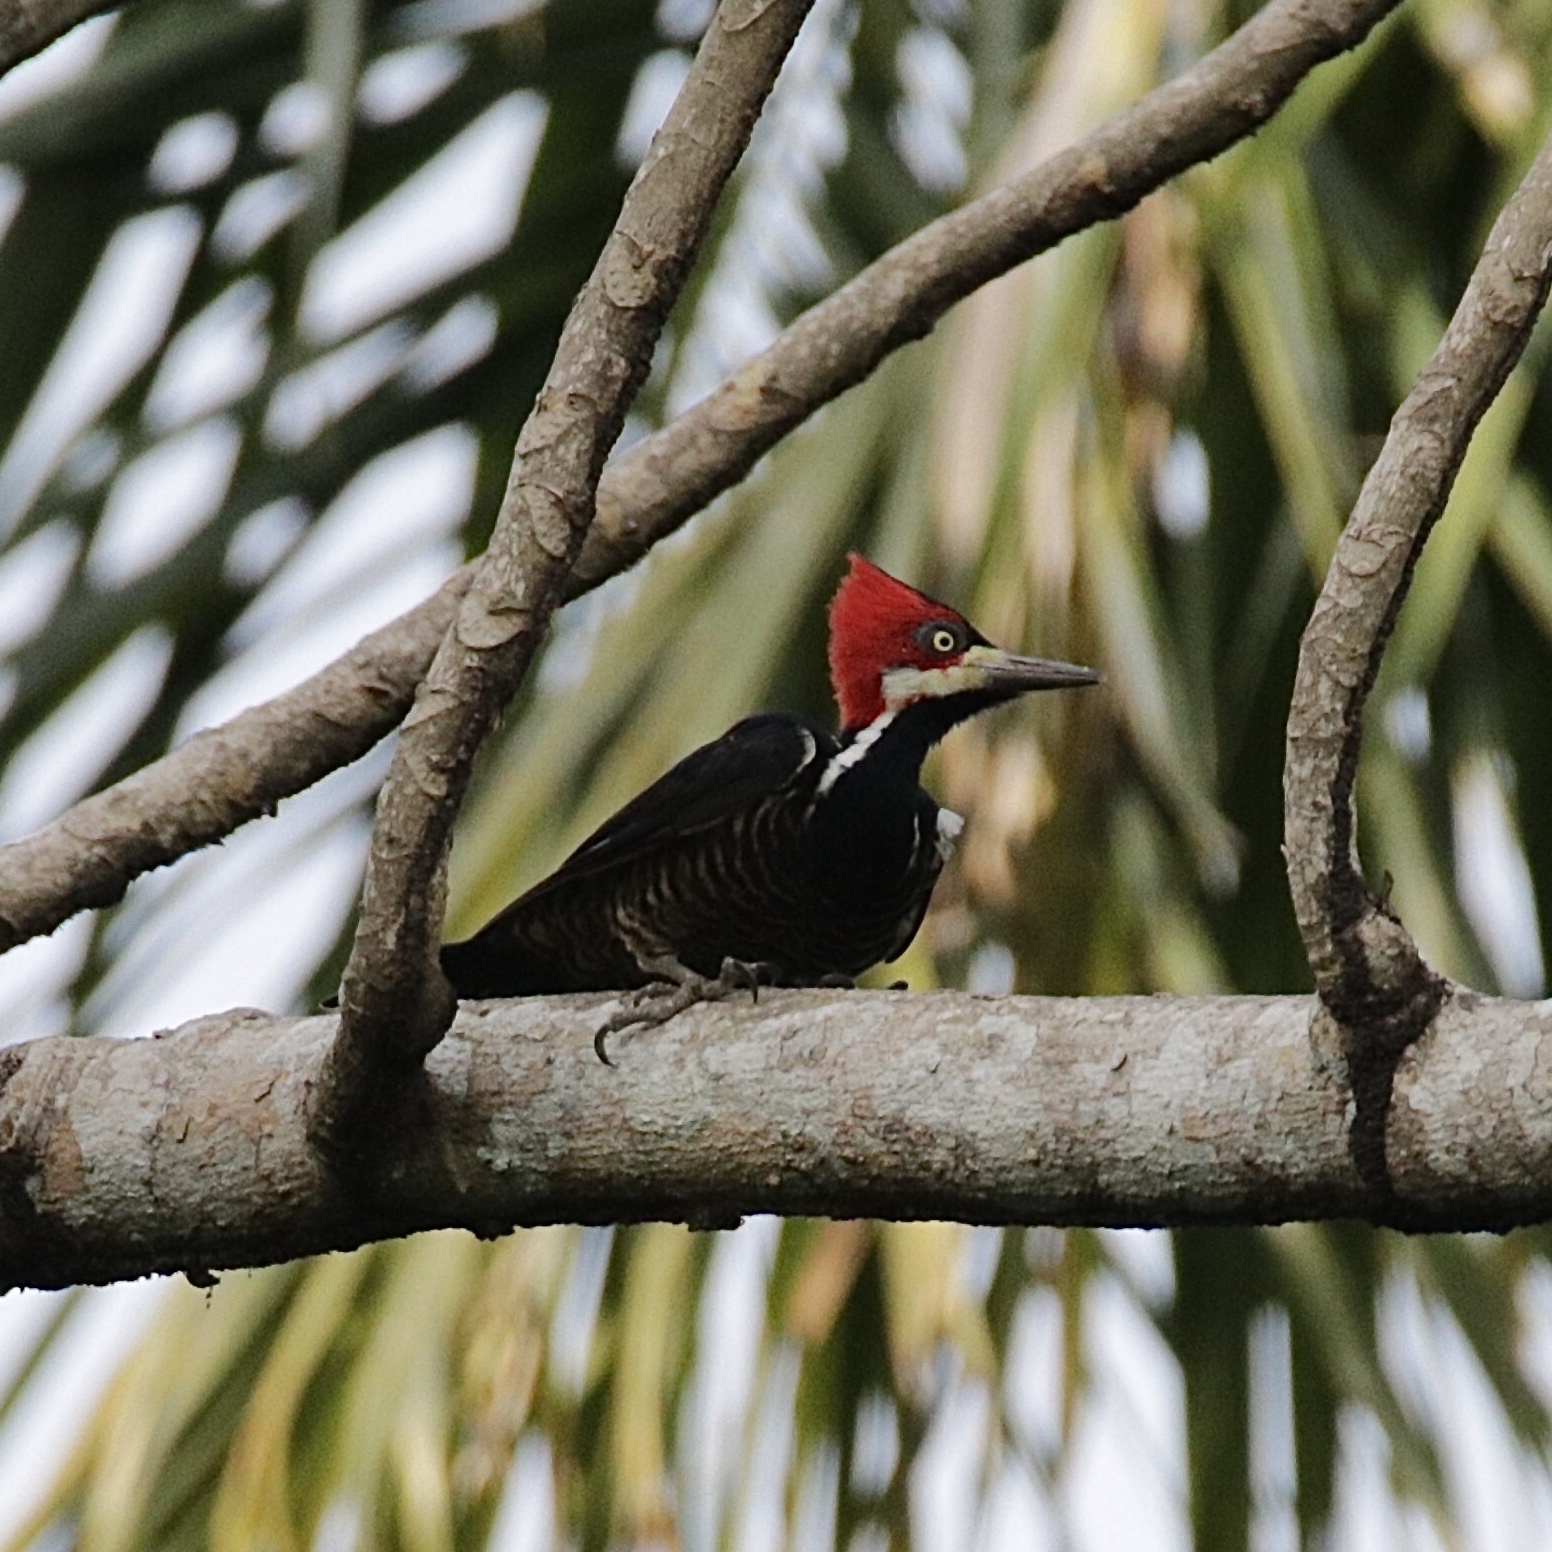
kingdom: Animalia
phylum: Chordata
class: Aves
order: Piciformes
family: Picidae
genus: Campephilus
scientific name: Campephilus melanoleucos
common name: Crimson-crested woodpecker
